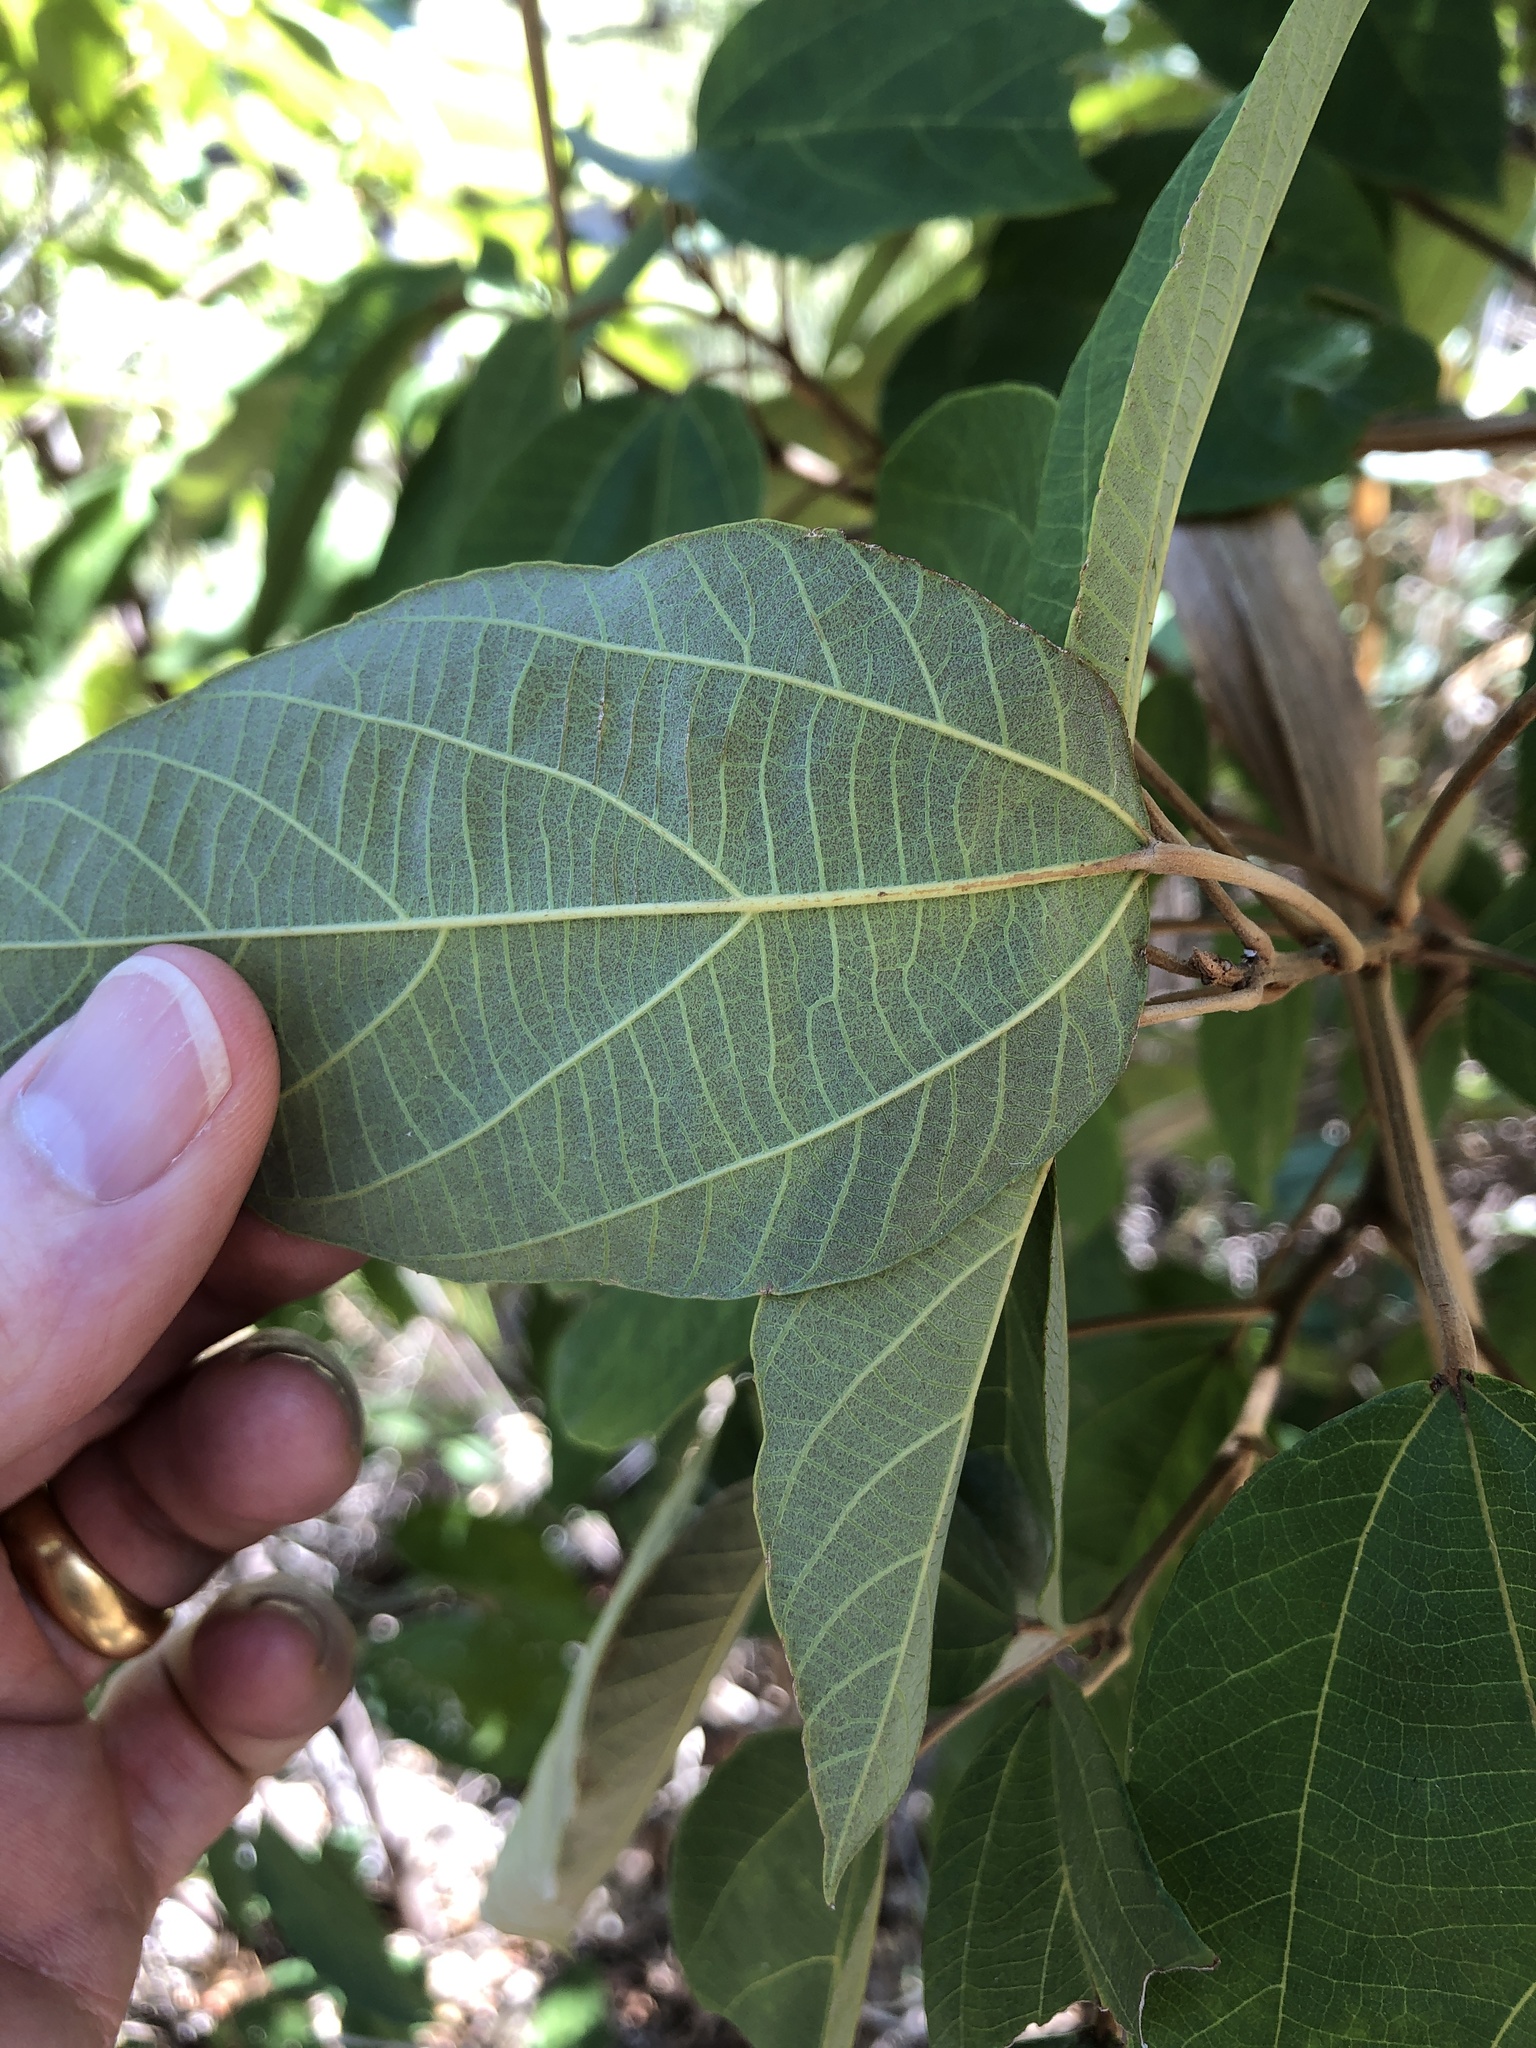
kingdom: Plantae
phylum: Tracheophyta
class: Magnoliopsida
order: Malpighiales
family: Euphorbiaceae
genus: Mallotus
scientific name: Mallotus philippensis
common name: Kamala tree
